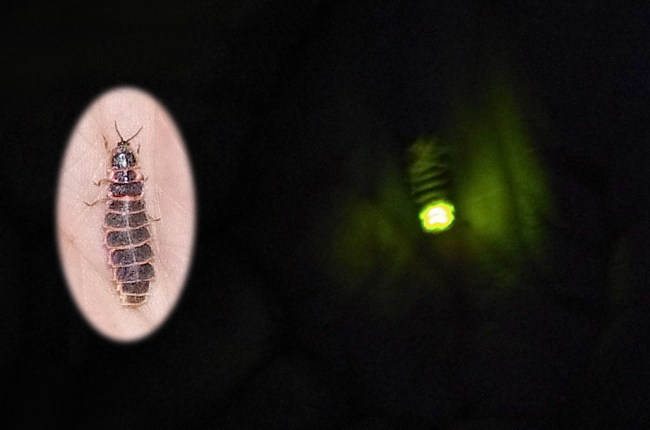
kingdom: Animalia
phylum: Arthropoda
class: Insecta
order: Coleoptera
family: Lampyridae
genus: Lampyris
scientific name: Lampyris noctiluca
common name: Glow-worm
